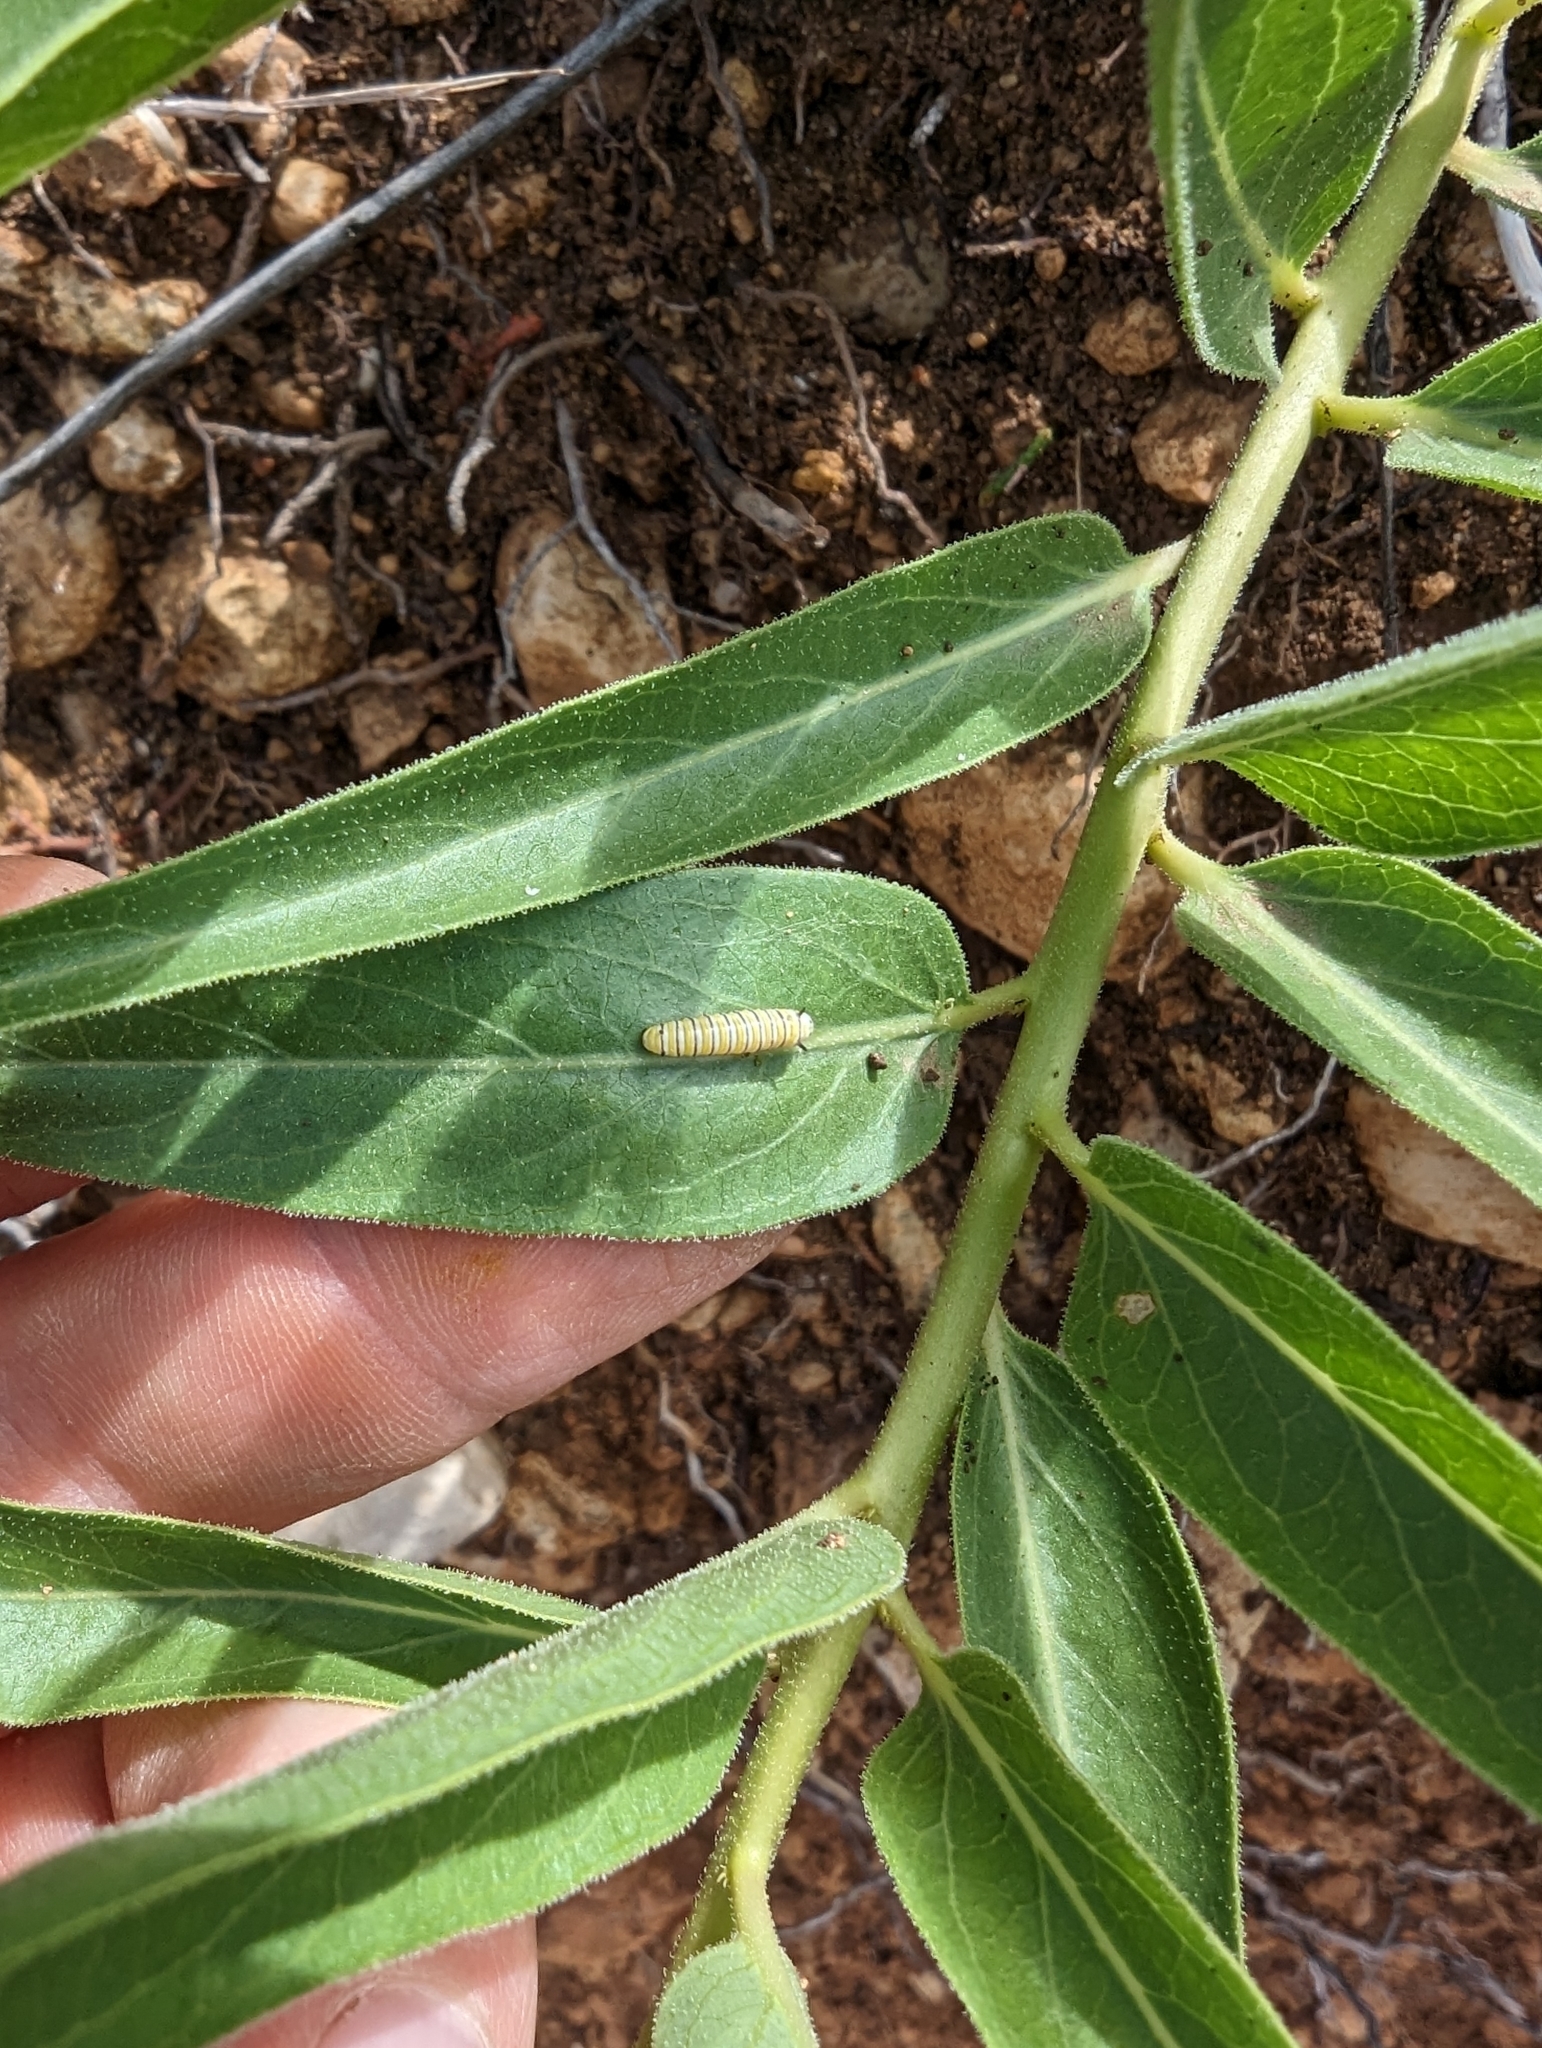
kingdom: Animalia
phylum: Arthropoda
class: Insecta
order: Lepidoptera
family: Nymphalidae
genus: Danaus
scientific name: Danaus plexippus
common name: Monarch
